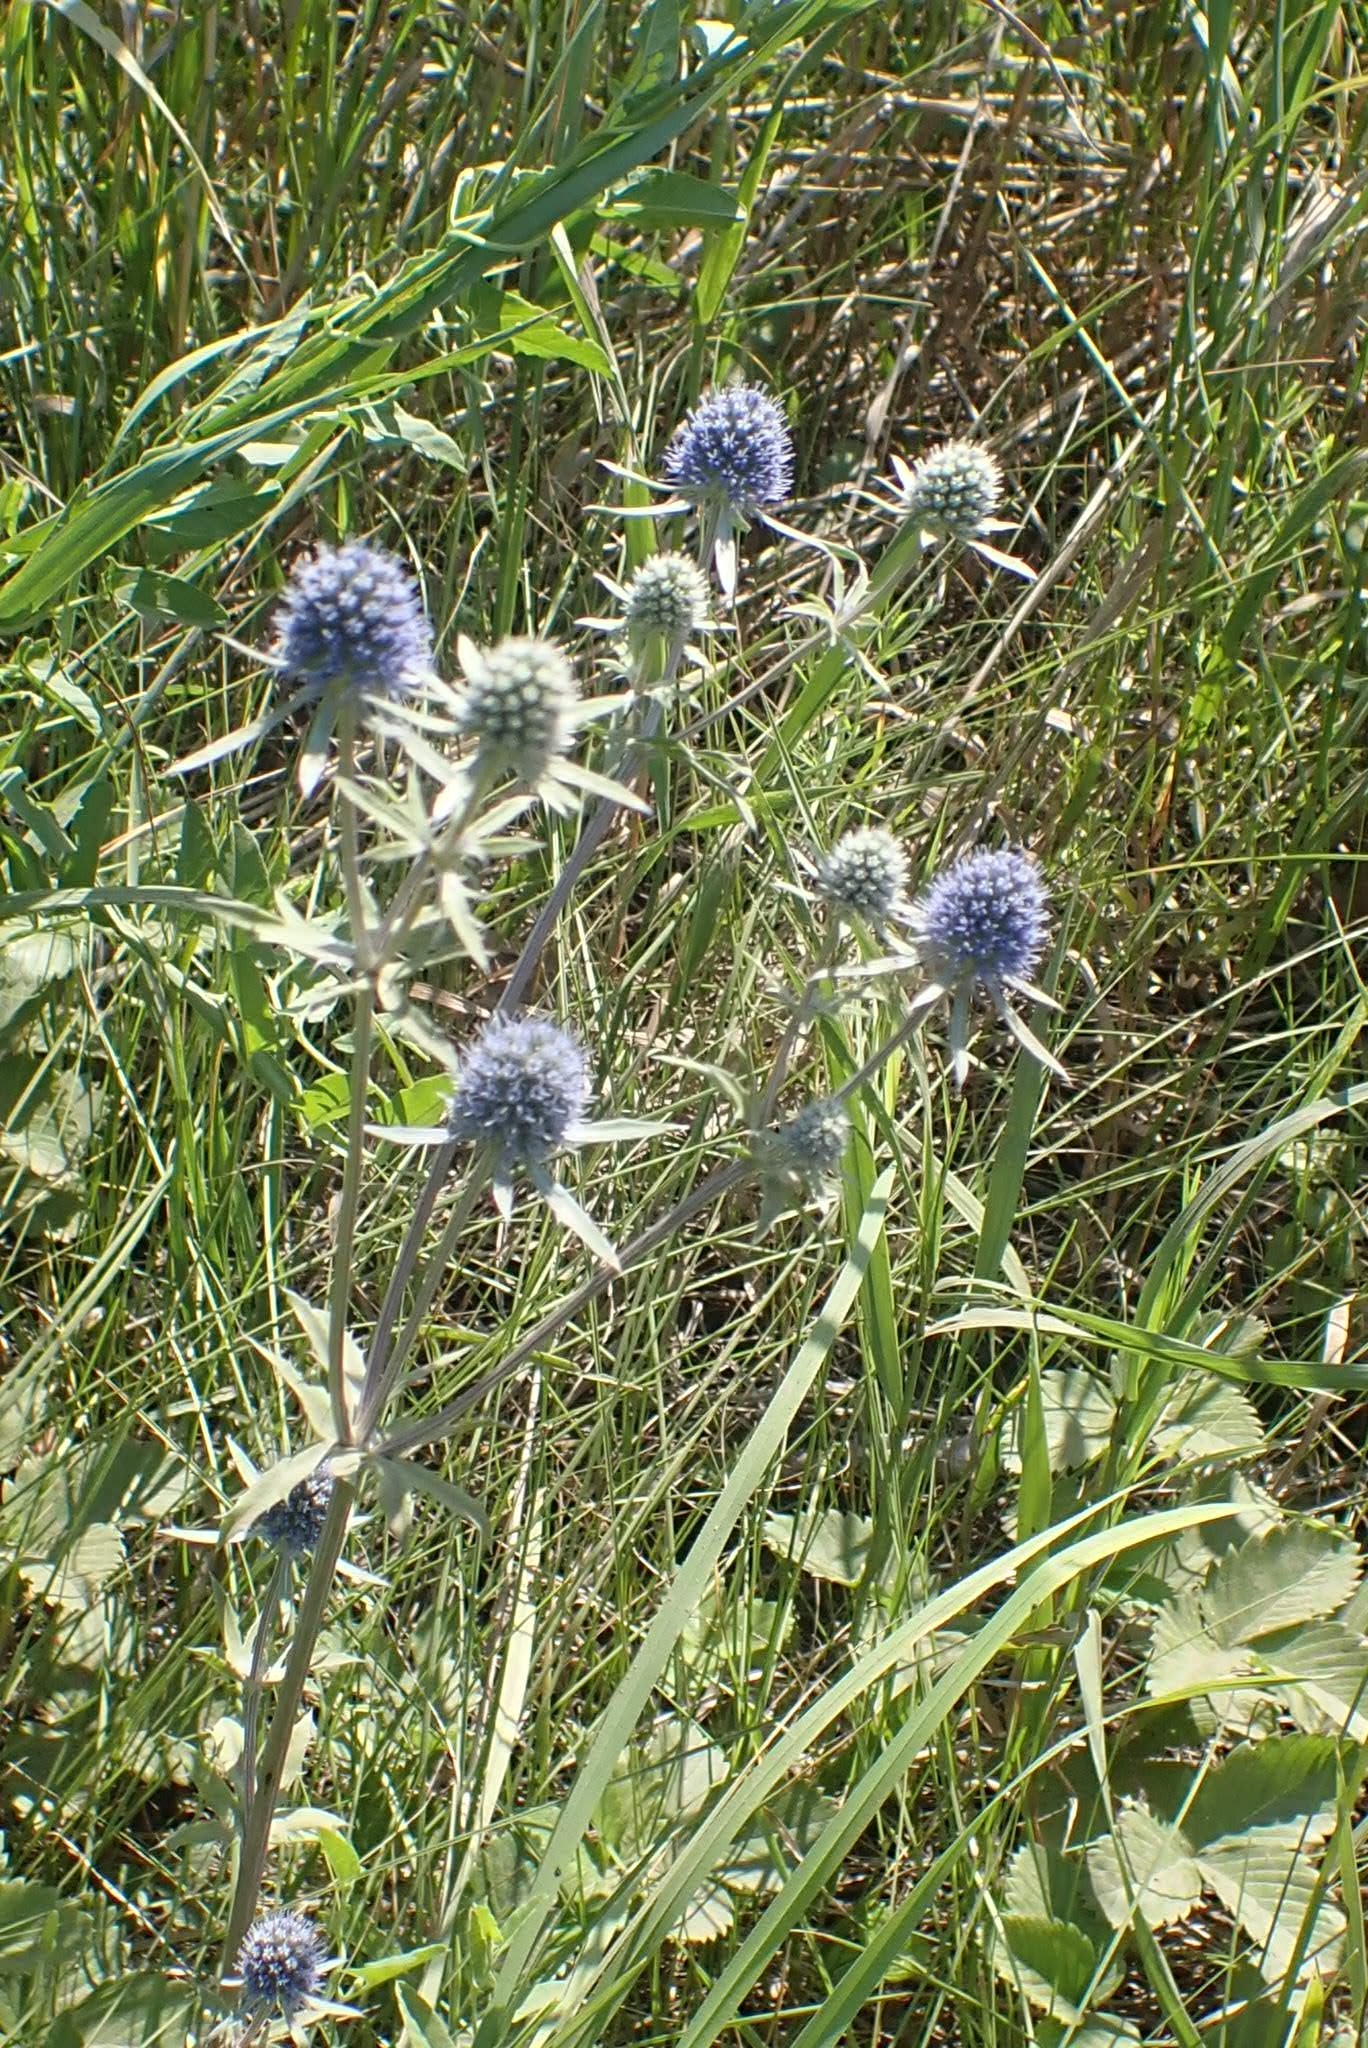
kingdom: Plantae
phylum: Tracheophyta
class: Magnoliopsida
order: Apiales
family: Apiaceae
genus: Eryngium
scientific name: Eryngium planum
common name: Blue eryngo
